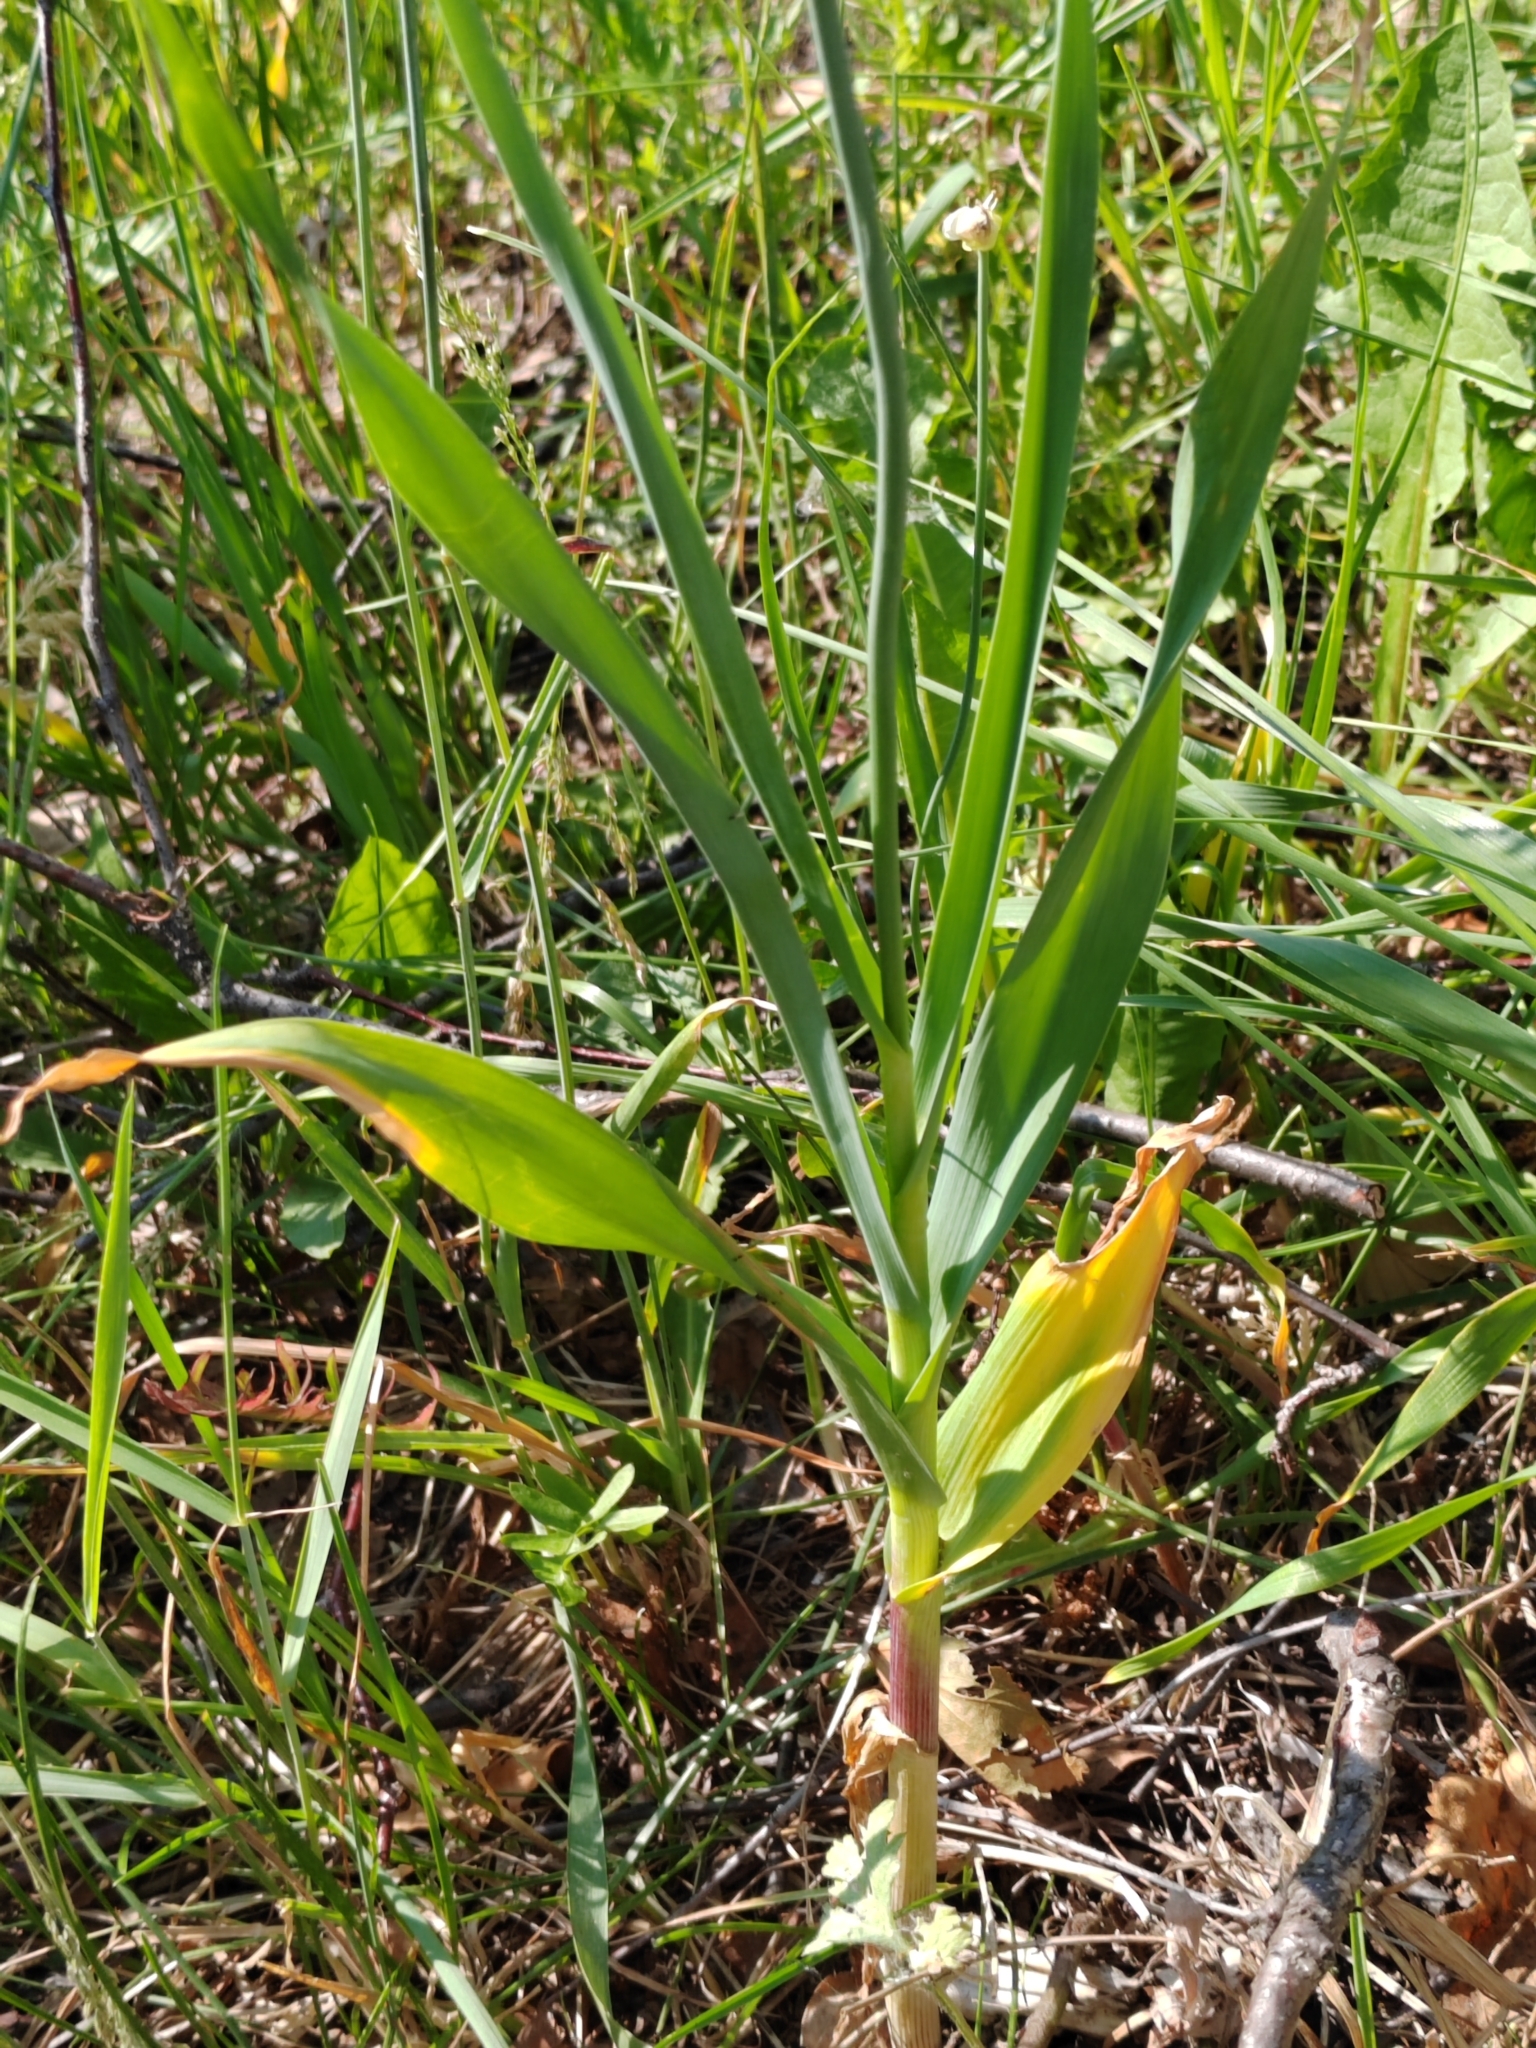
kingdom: Plantae
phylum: Tracheophyta
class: Liliopsida
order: Asparagales
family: Amaryllidaceae
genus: Allium
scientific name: Allium obliquum
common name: Oblique onion
